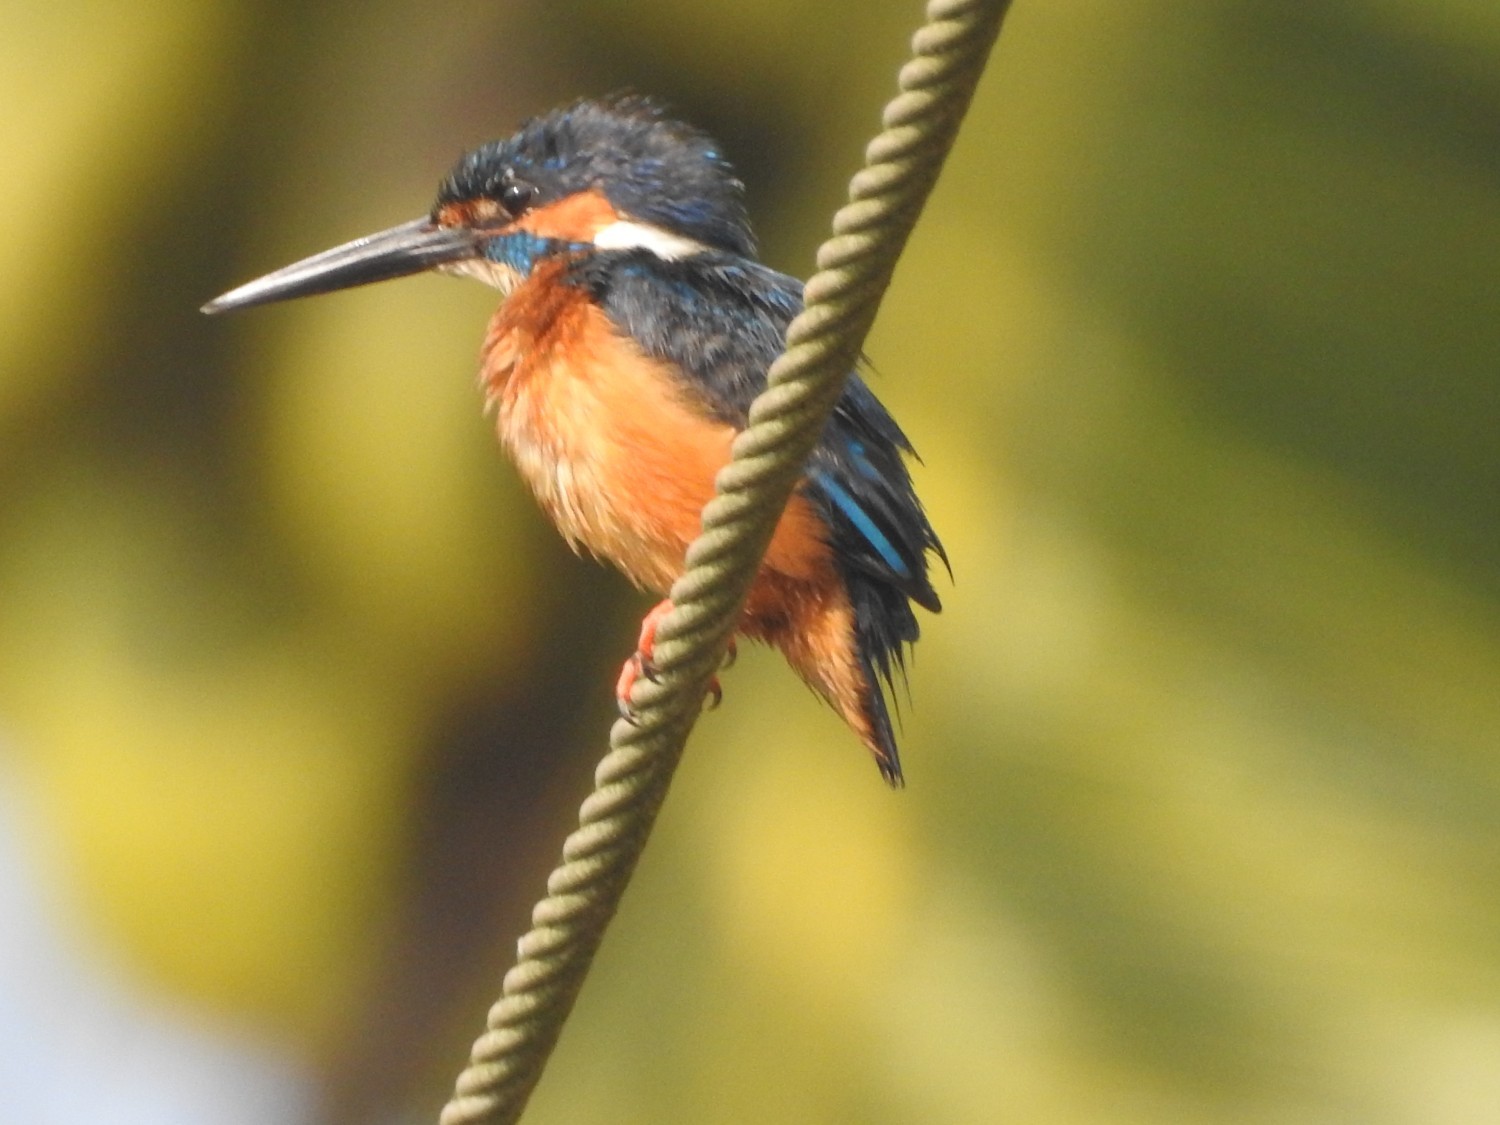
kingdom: Animalia
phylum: Chordata
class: Aves
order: Coraciiformes
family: Alcedinidae
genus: Alcedo
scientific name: Alcedo atthis
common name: Common kingfisher
